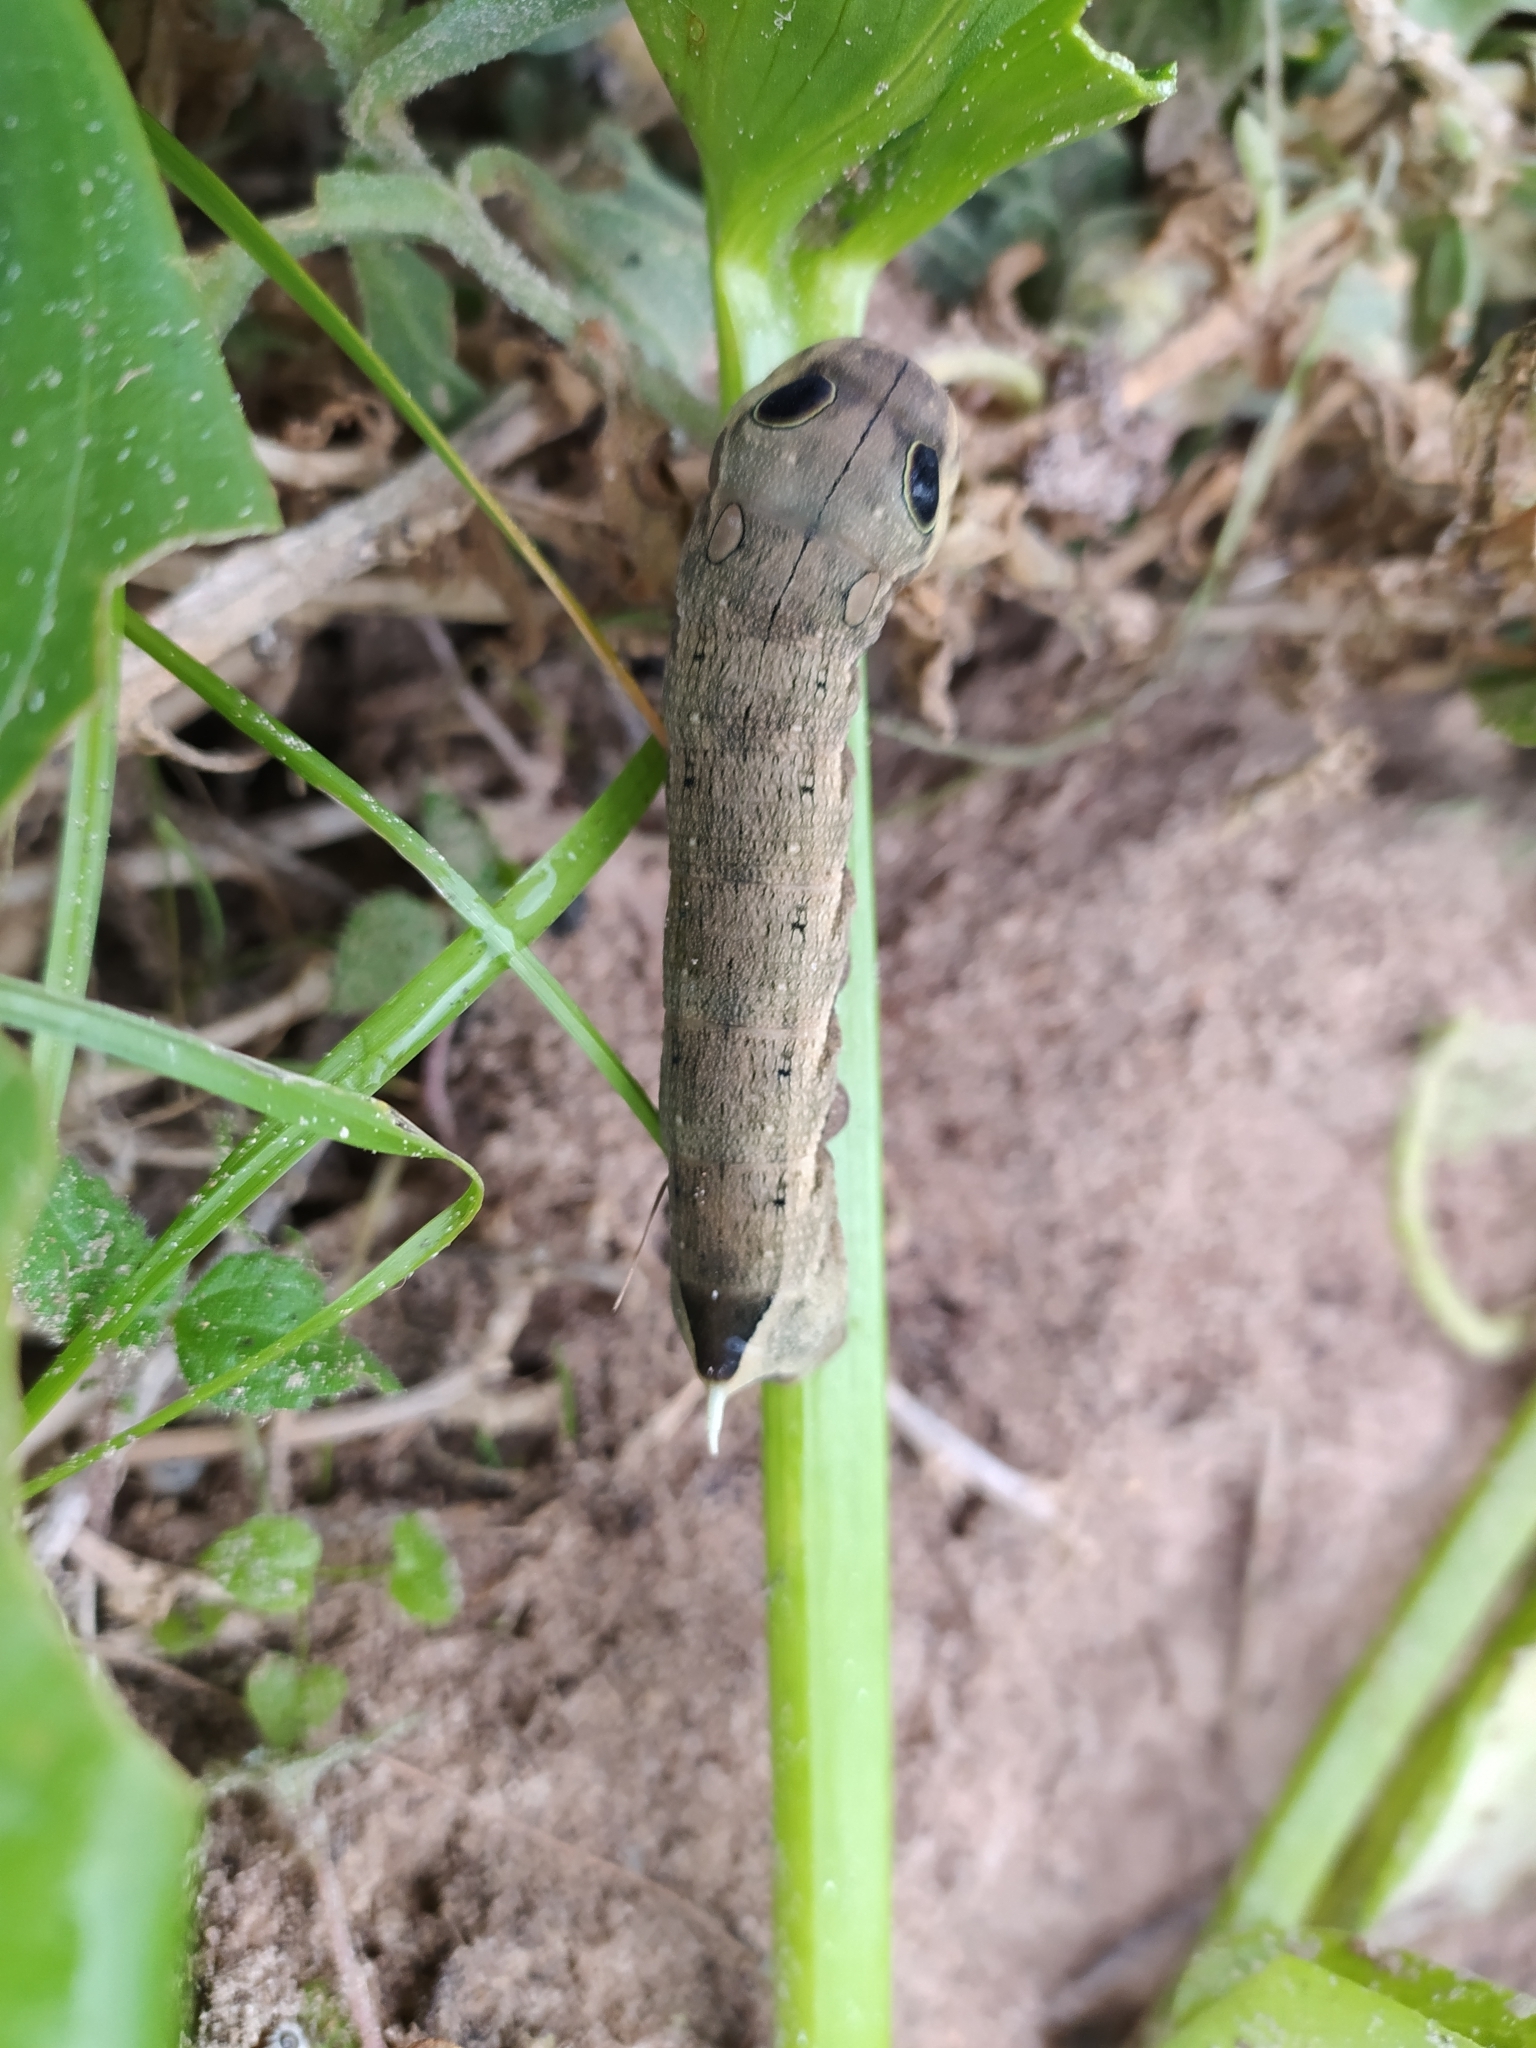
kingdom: Animalia
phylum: Arthropoda
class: Insecta
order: Lepidoptera
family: Sphingidae
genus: Hippotion
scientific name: Hippotion eson
